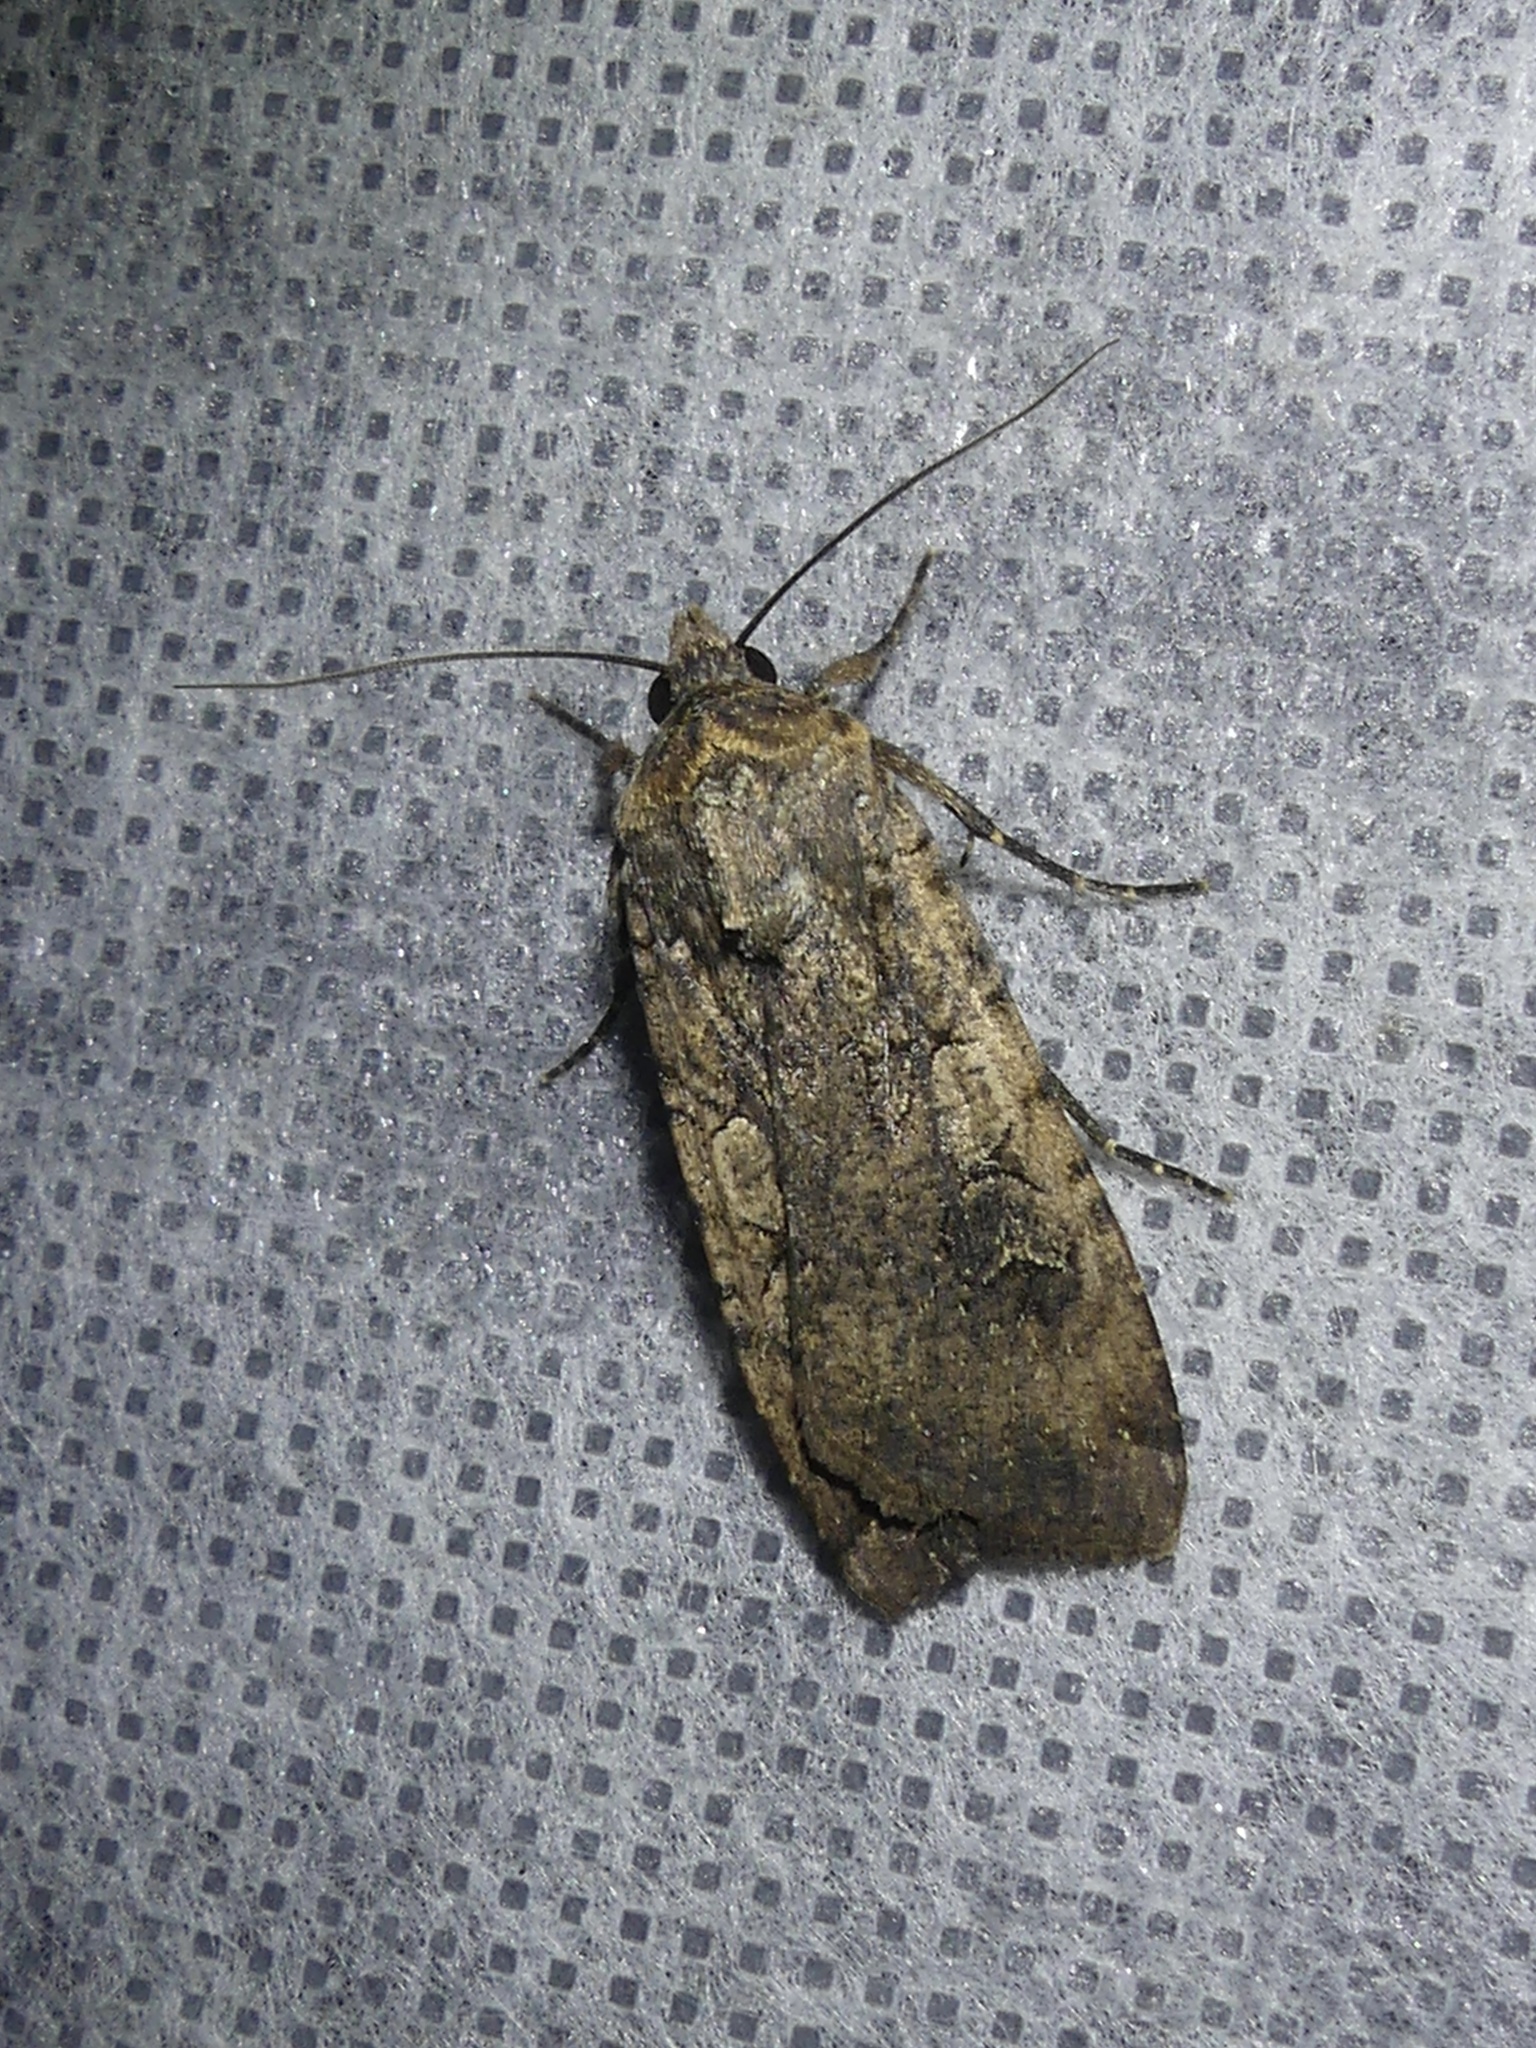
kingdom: Animalia
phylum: Arthropoda
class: Insecta
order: Lepidoptera
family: Noctuidae
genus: Peridroma
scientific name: Peridroma saucia
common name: Pearly underwing
